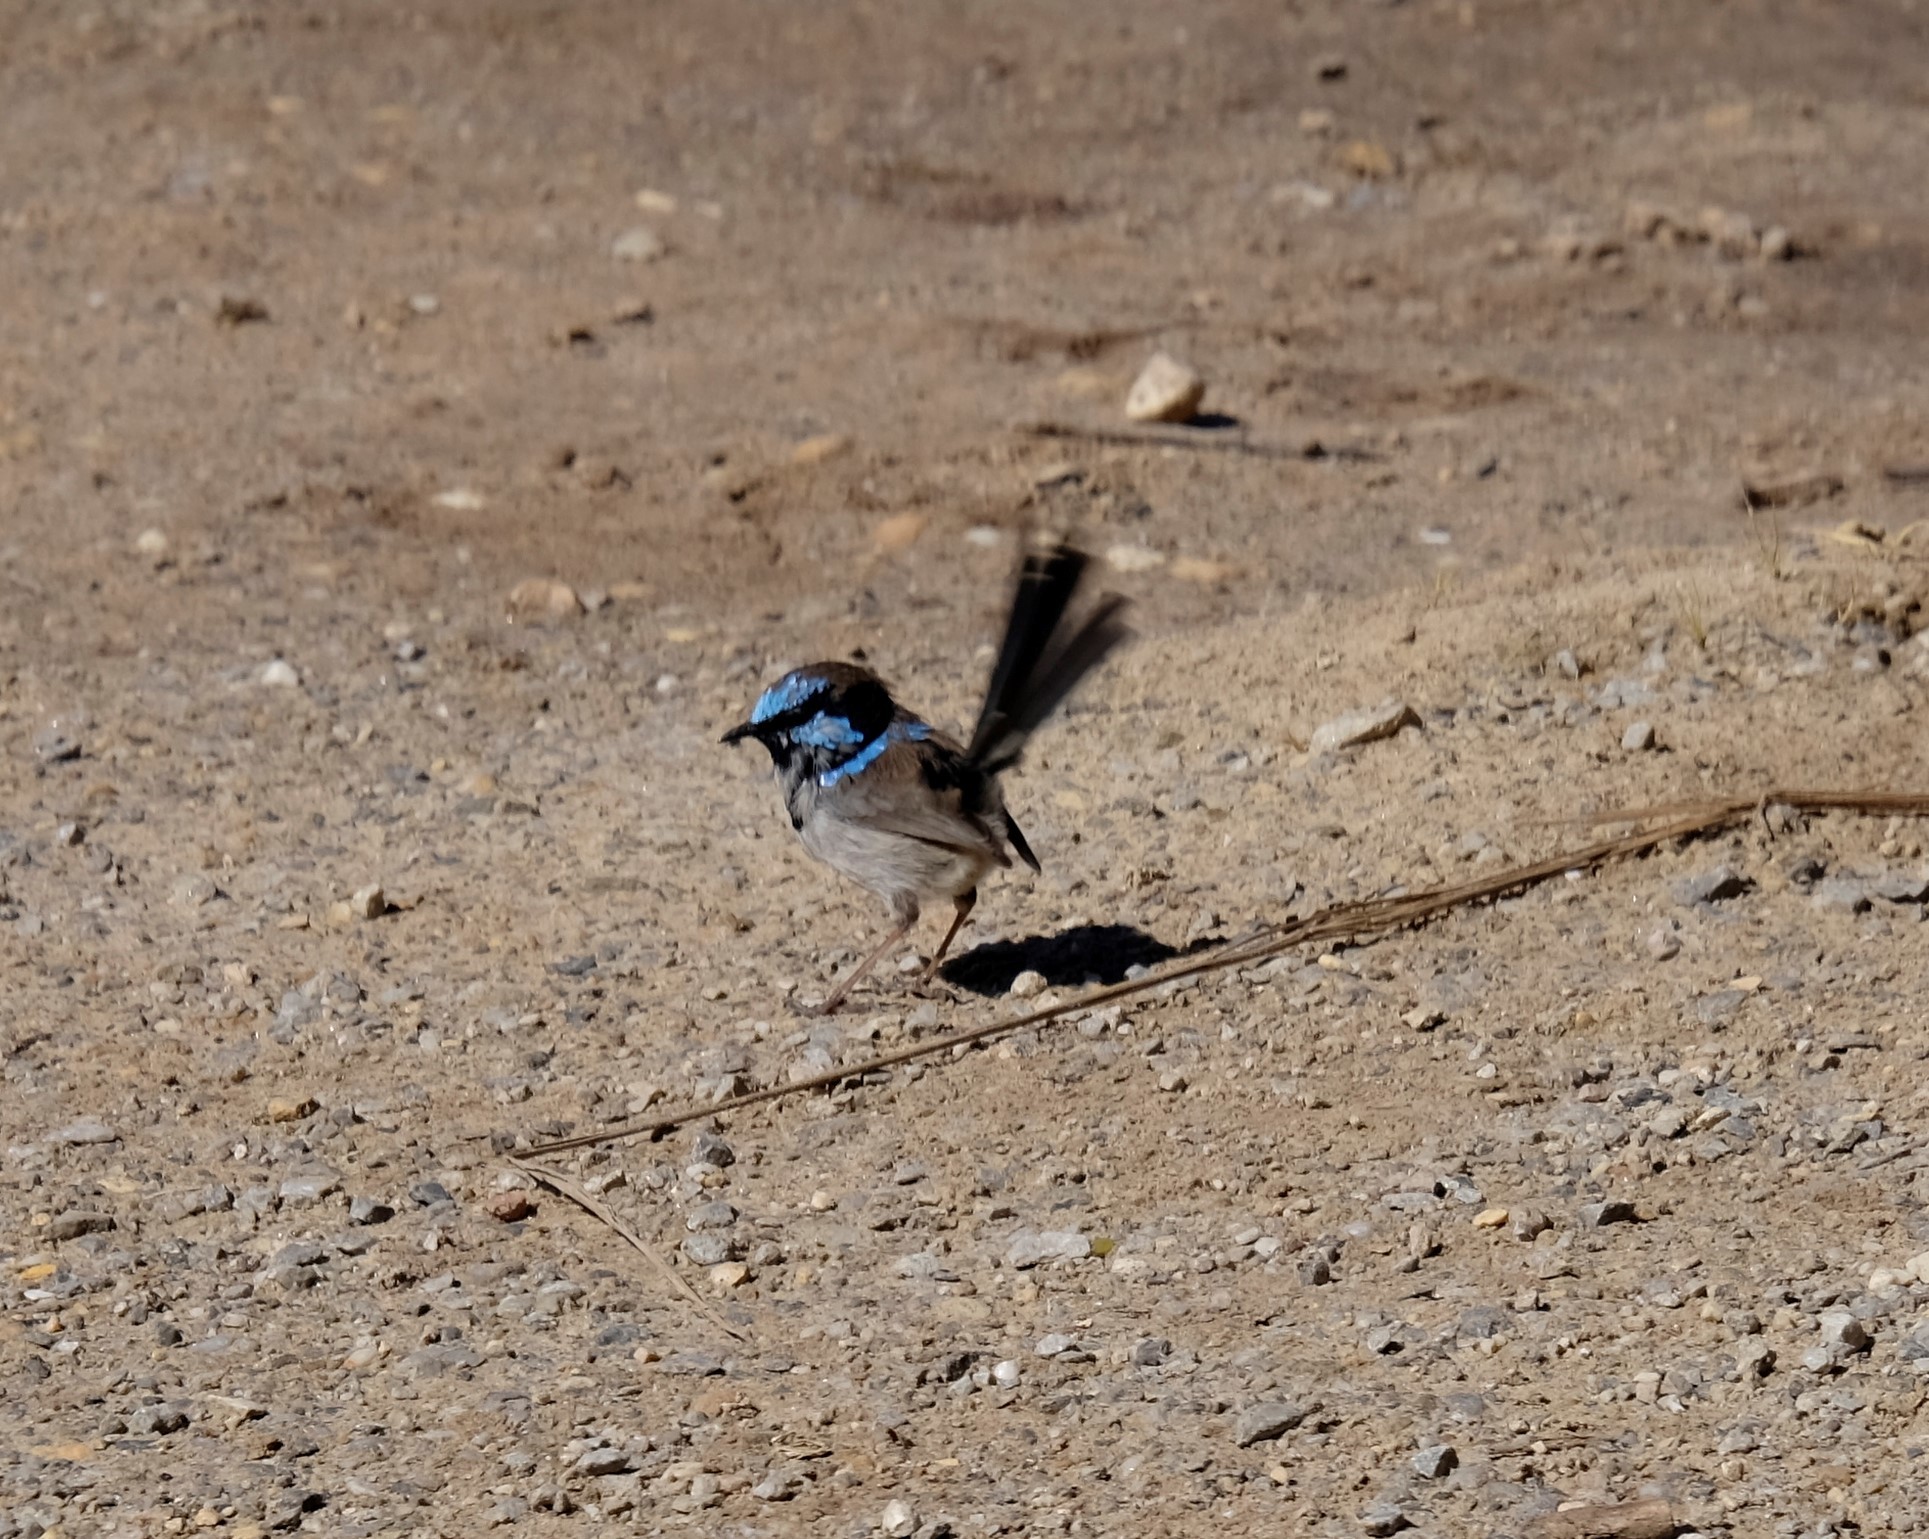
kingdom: Animalia
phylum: Chordata
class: Aves
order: Passeriformes
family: Maluridae
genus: Malurus
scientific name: Malurus cyaneus
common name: Superb fairywren
